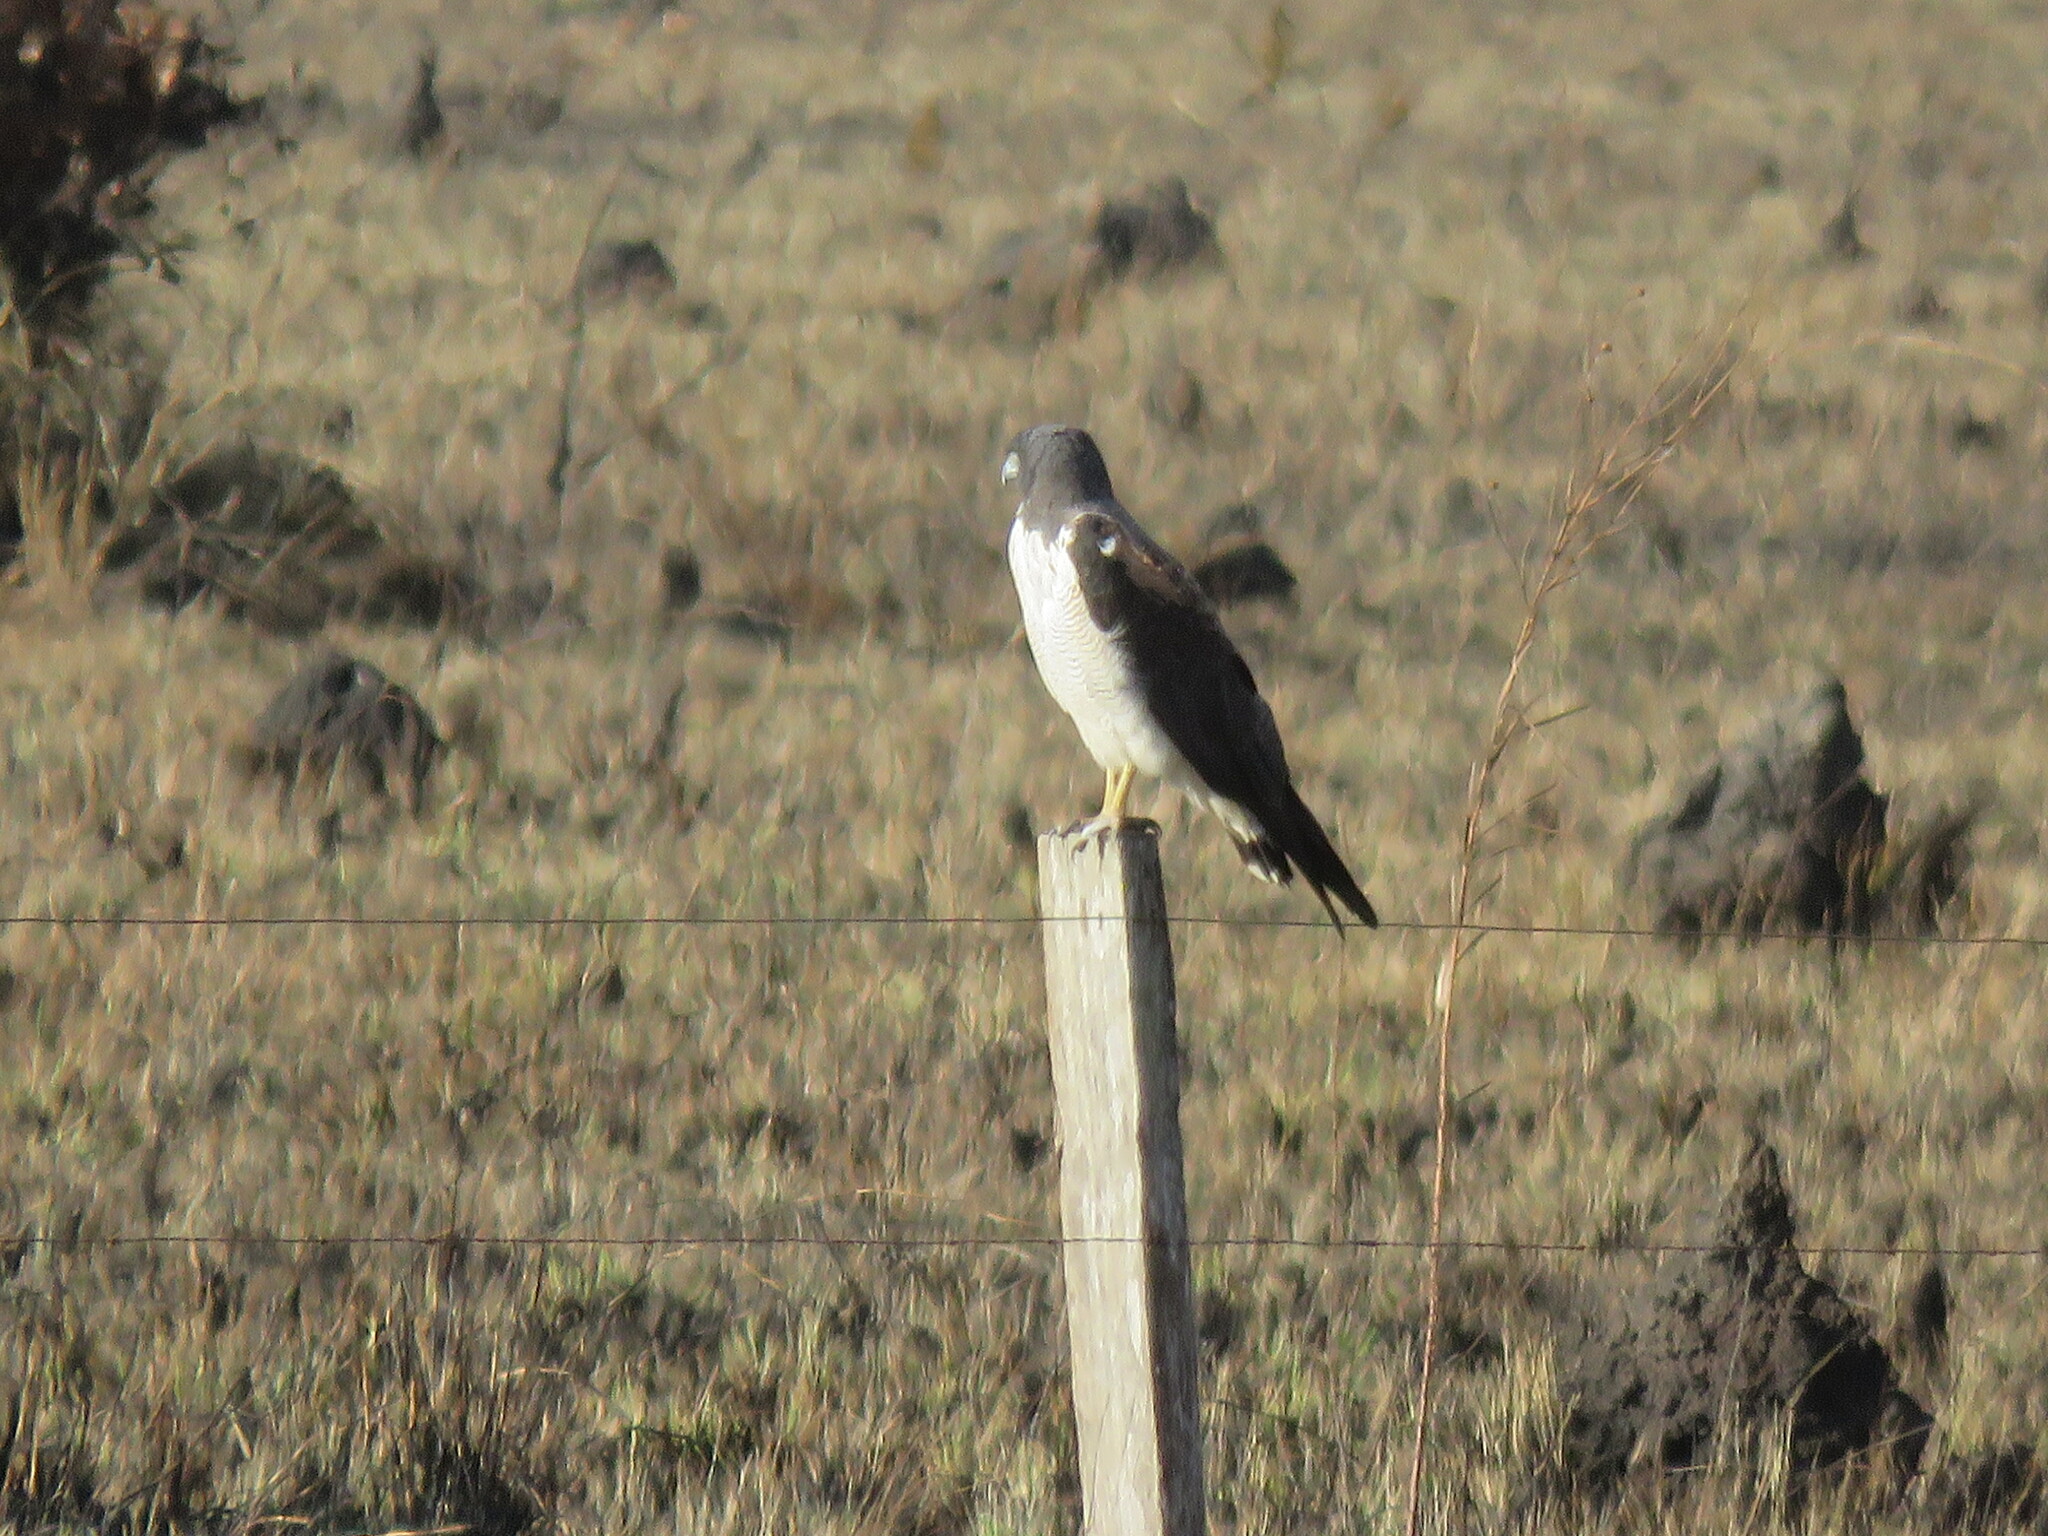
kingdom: Animalia
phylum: Chordata
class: Aves
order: Accipitriformes
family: Accipitridae
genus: Buteo
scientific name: Buteo albicaudatus
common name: White-tailed hawk
